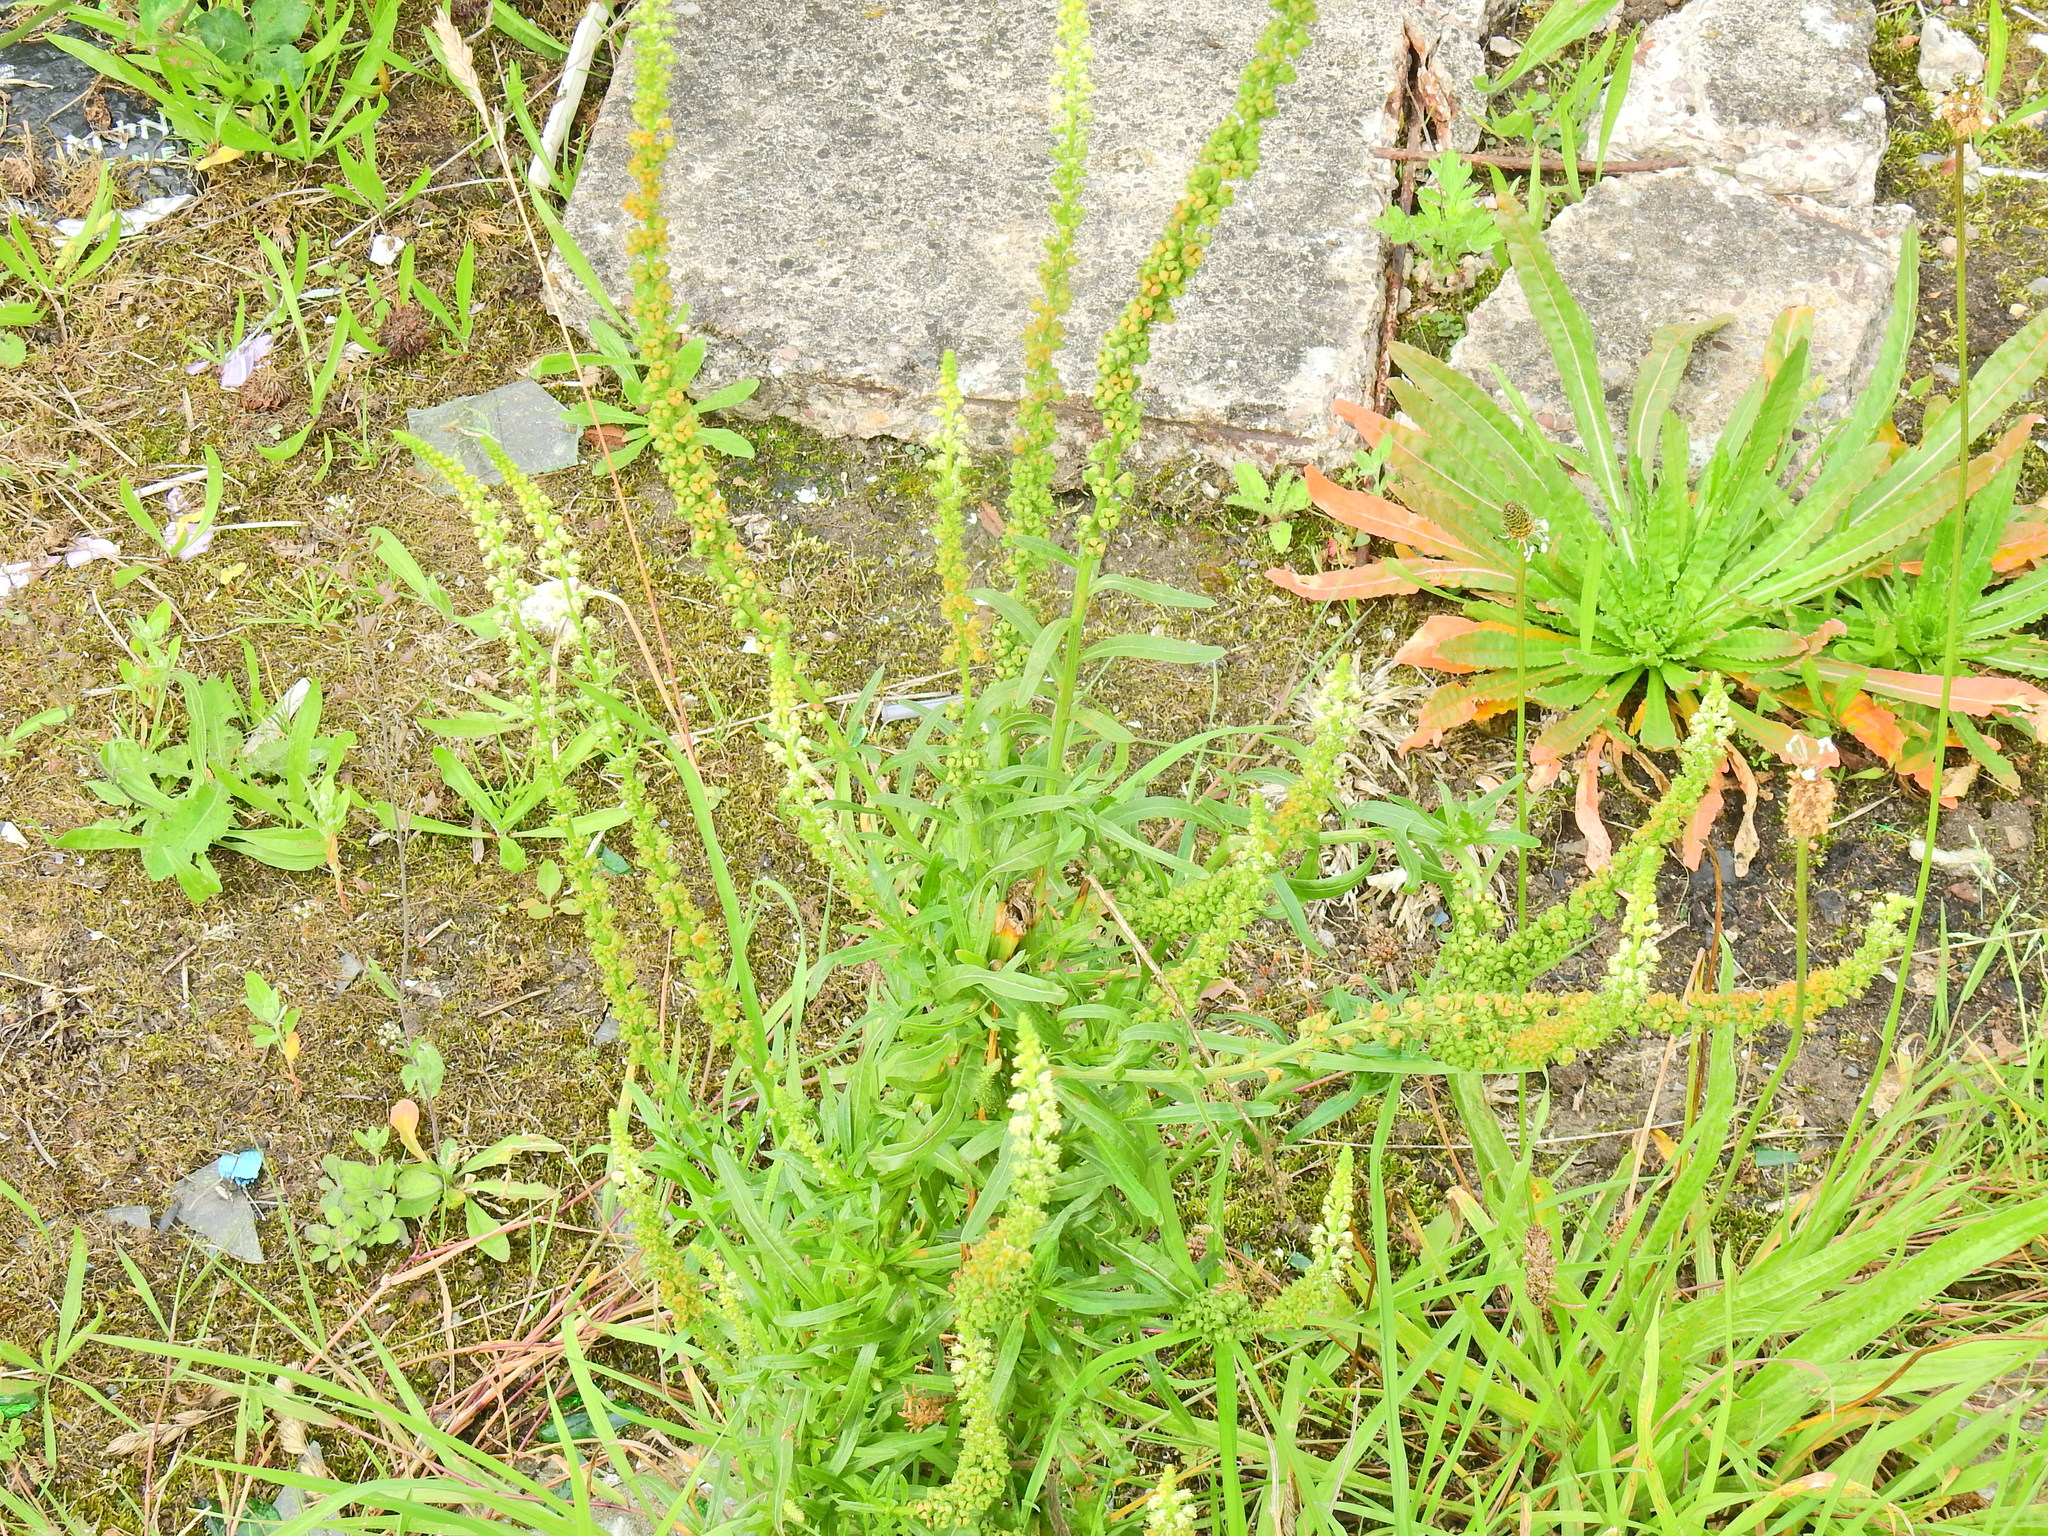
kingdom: Plantae
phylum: Tracheophyta
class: Magnoliopsida
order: Brassicales
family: Resedaceae
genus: Reseda
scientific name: Reseda luteola
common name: Weld
